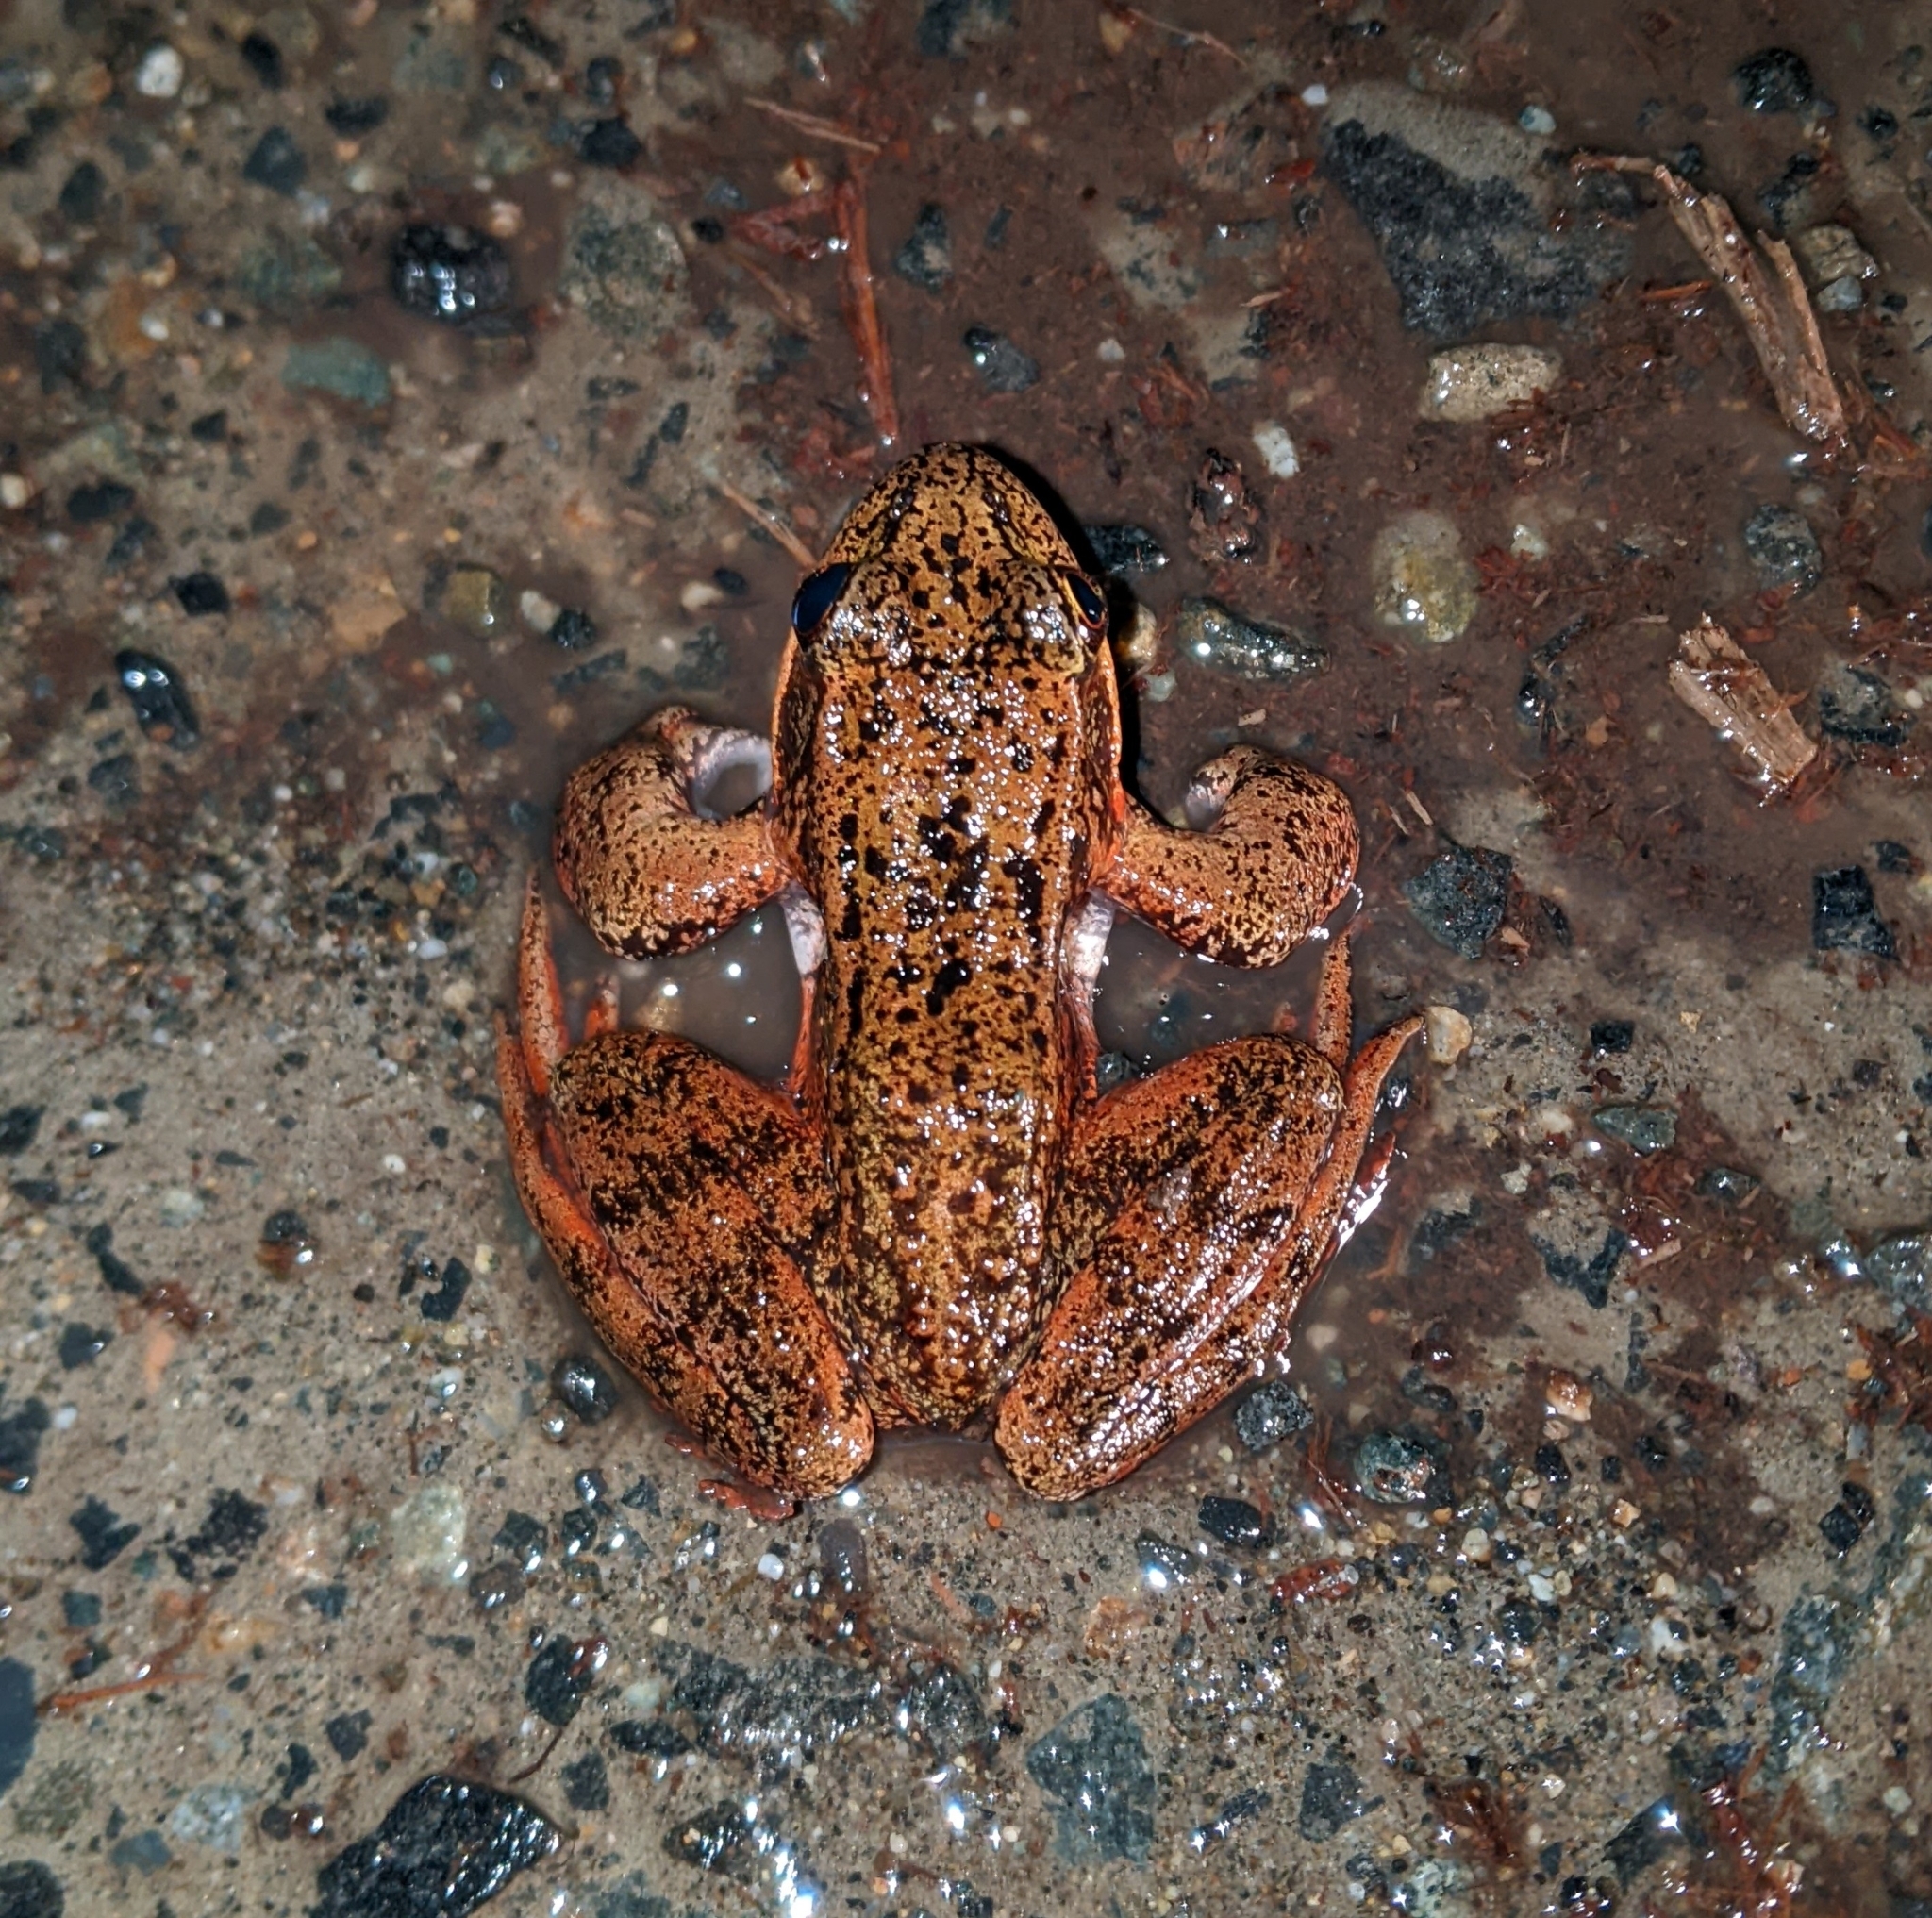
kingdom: Animalia
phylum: Chordata
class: Amphibia
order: Anura
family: Ranidae
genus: Rana
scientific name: Rana aurora
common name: Red-legged frog
